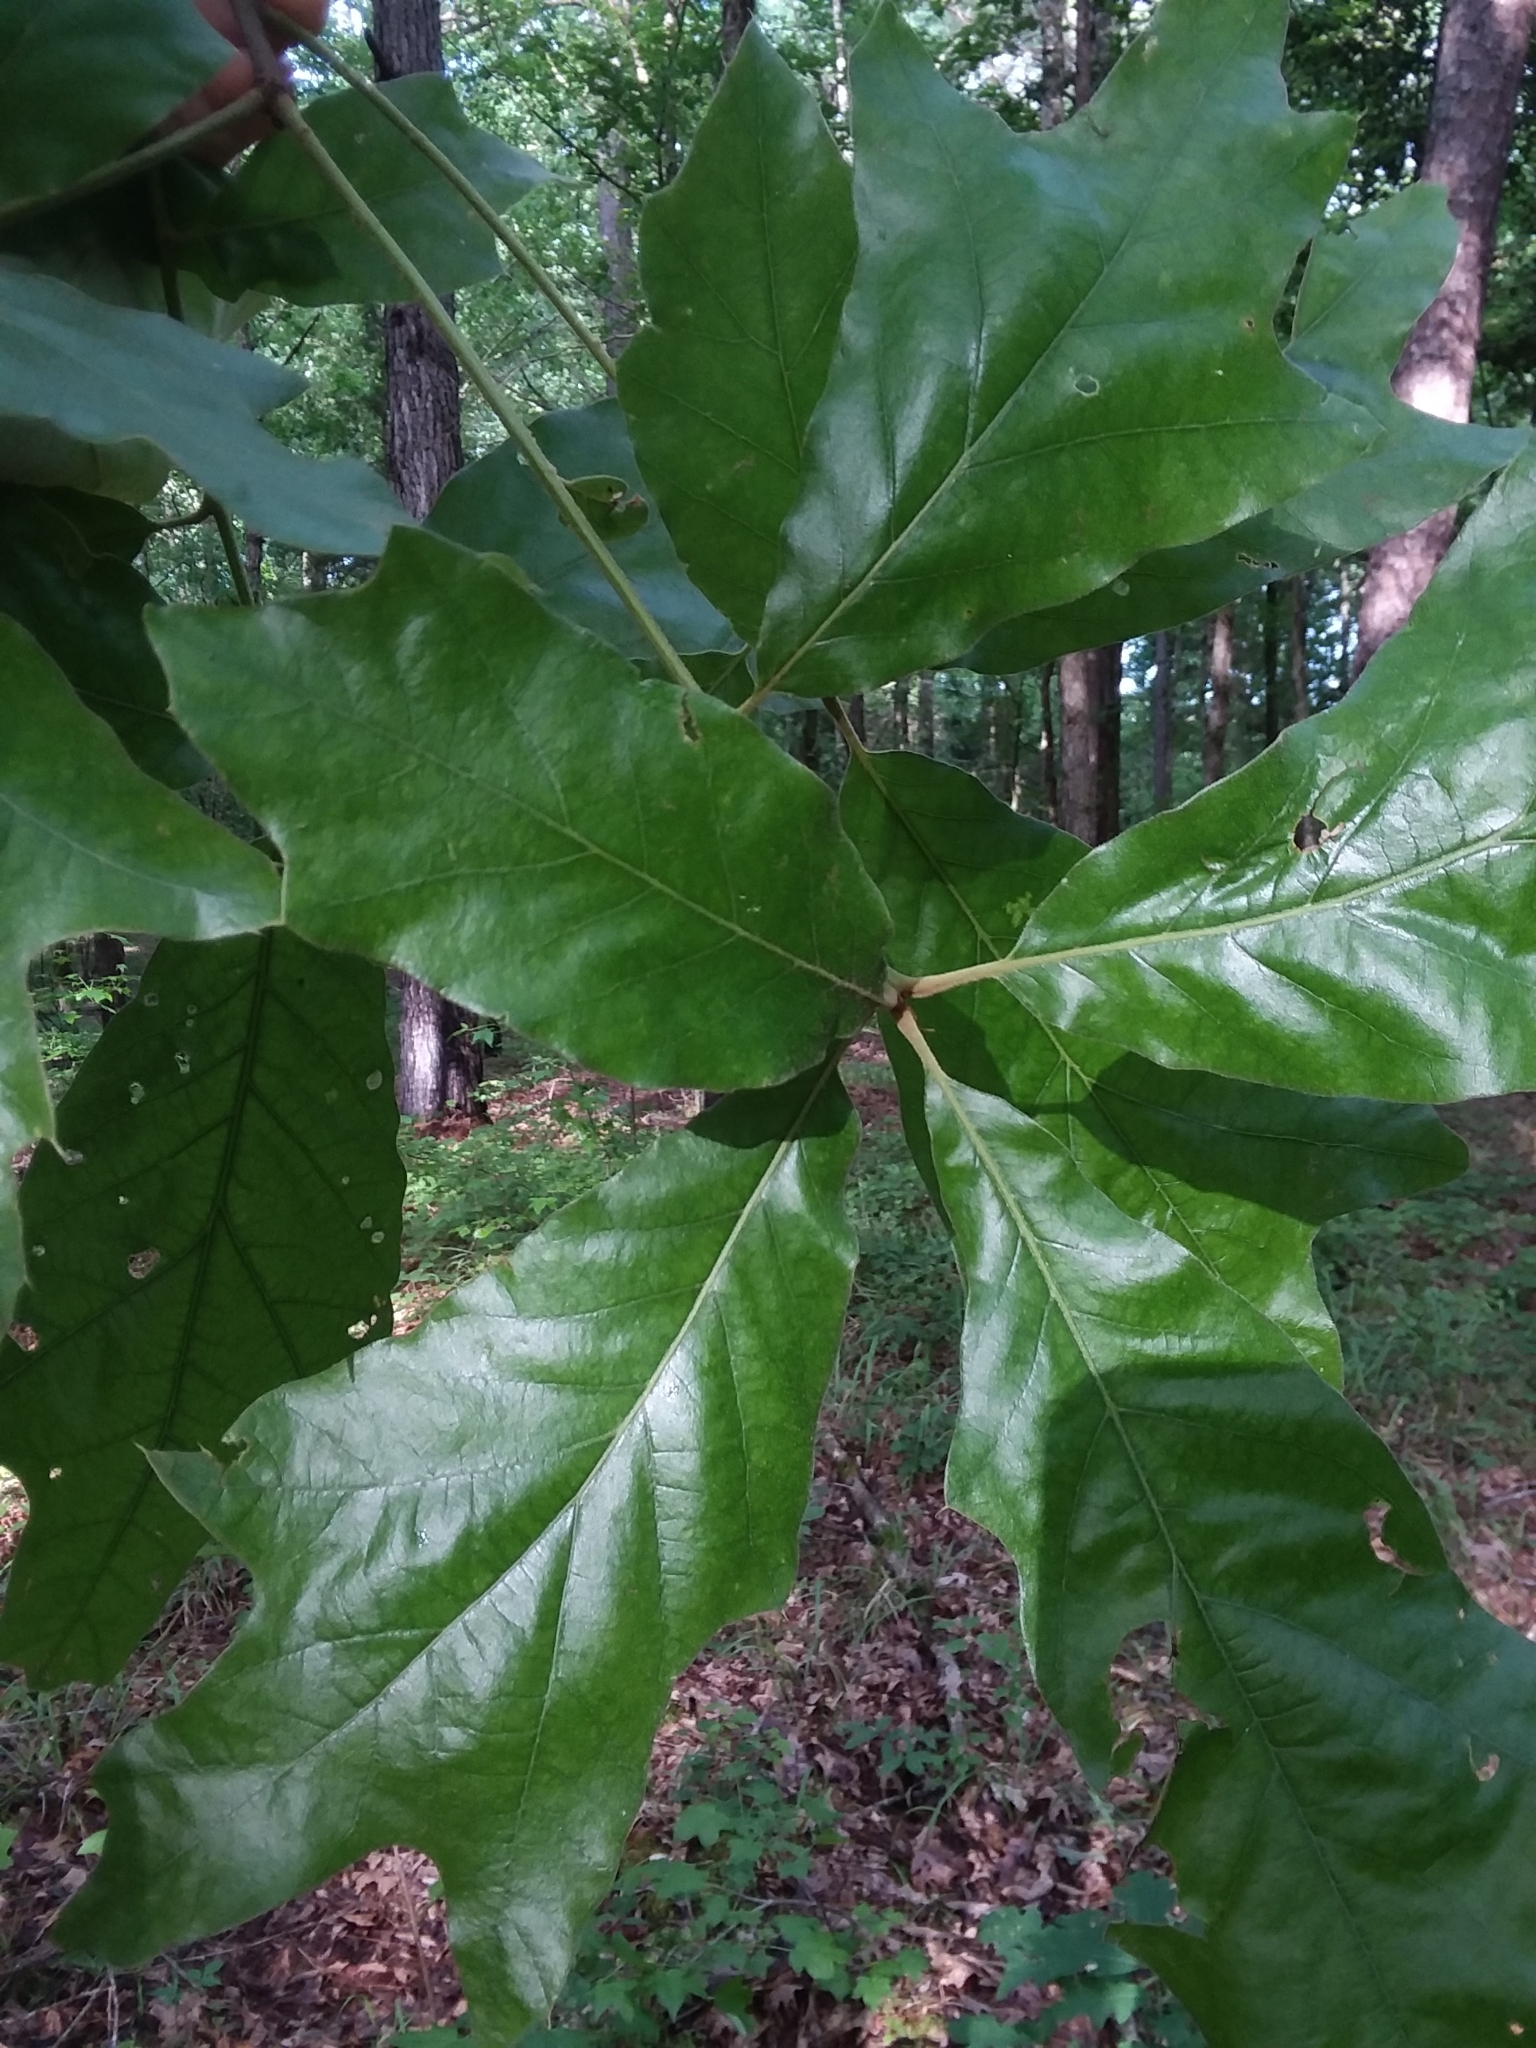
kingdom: Plantae
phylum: Tracheophyta
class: Magnoliopsida
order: Fagales
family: Fagaceae
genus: Quercus
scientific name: Quercus falcata
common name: Southern red oak
